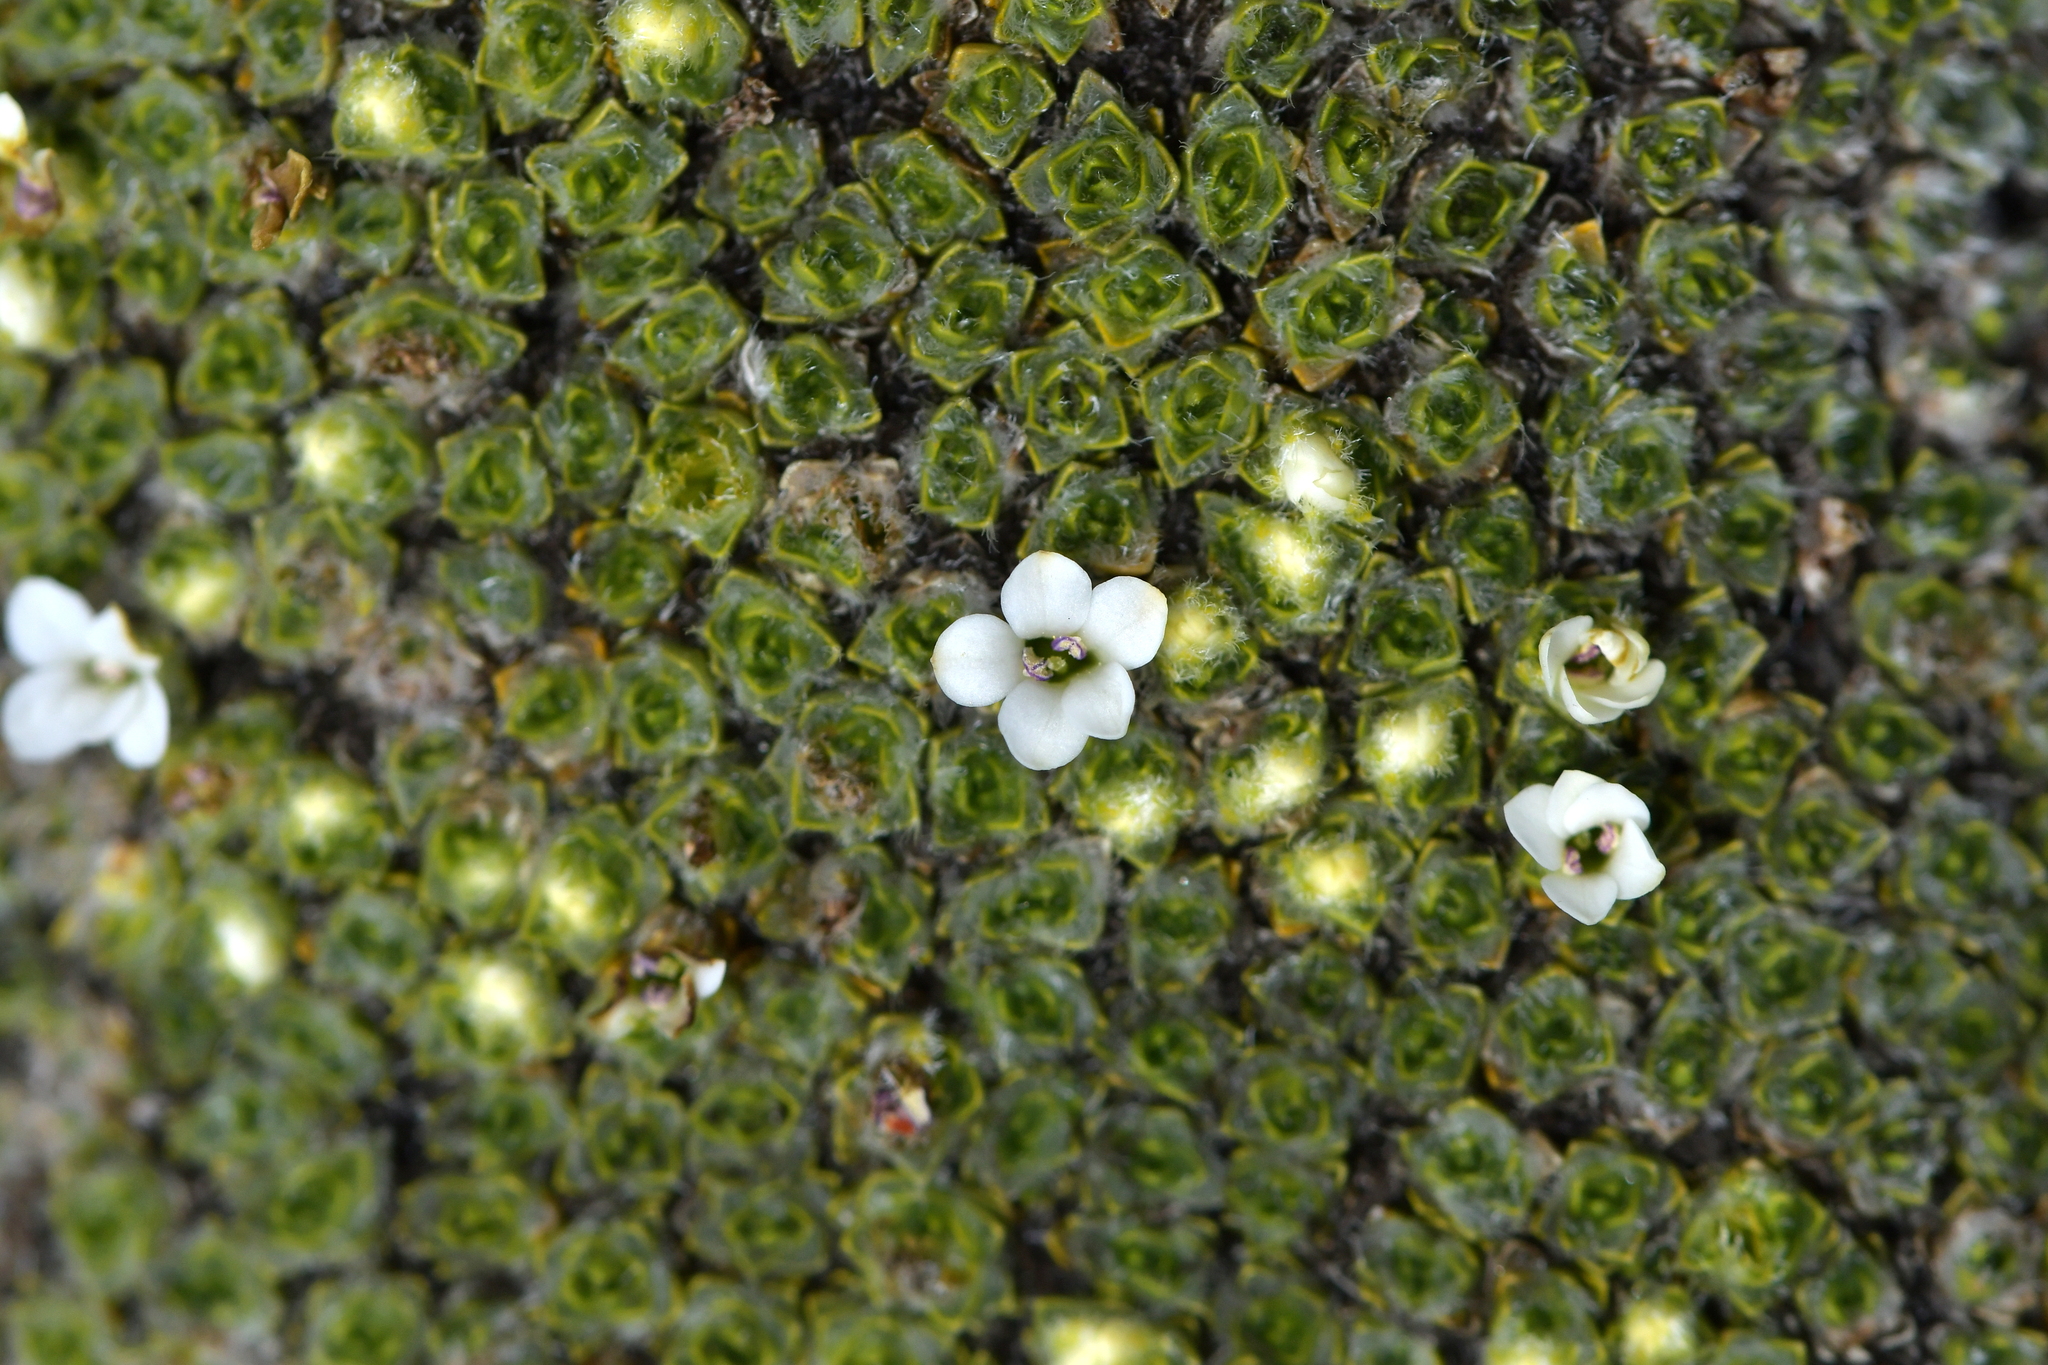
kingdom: Plantae
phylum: Tracheophyta
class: Magnoliopsida
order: Lamiales
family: Plantaginaceae
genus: Veronica
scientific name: Veronica thomsonii
